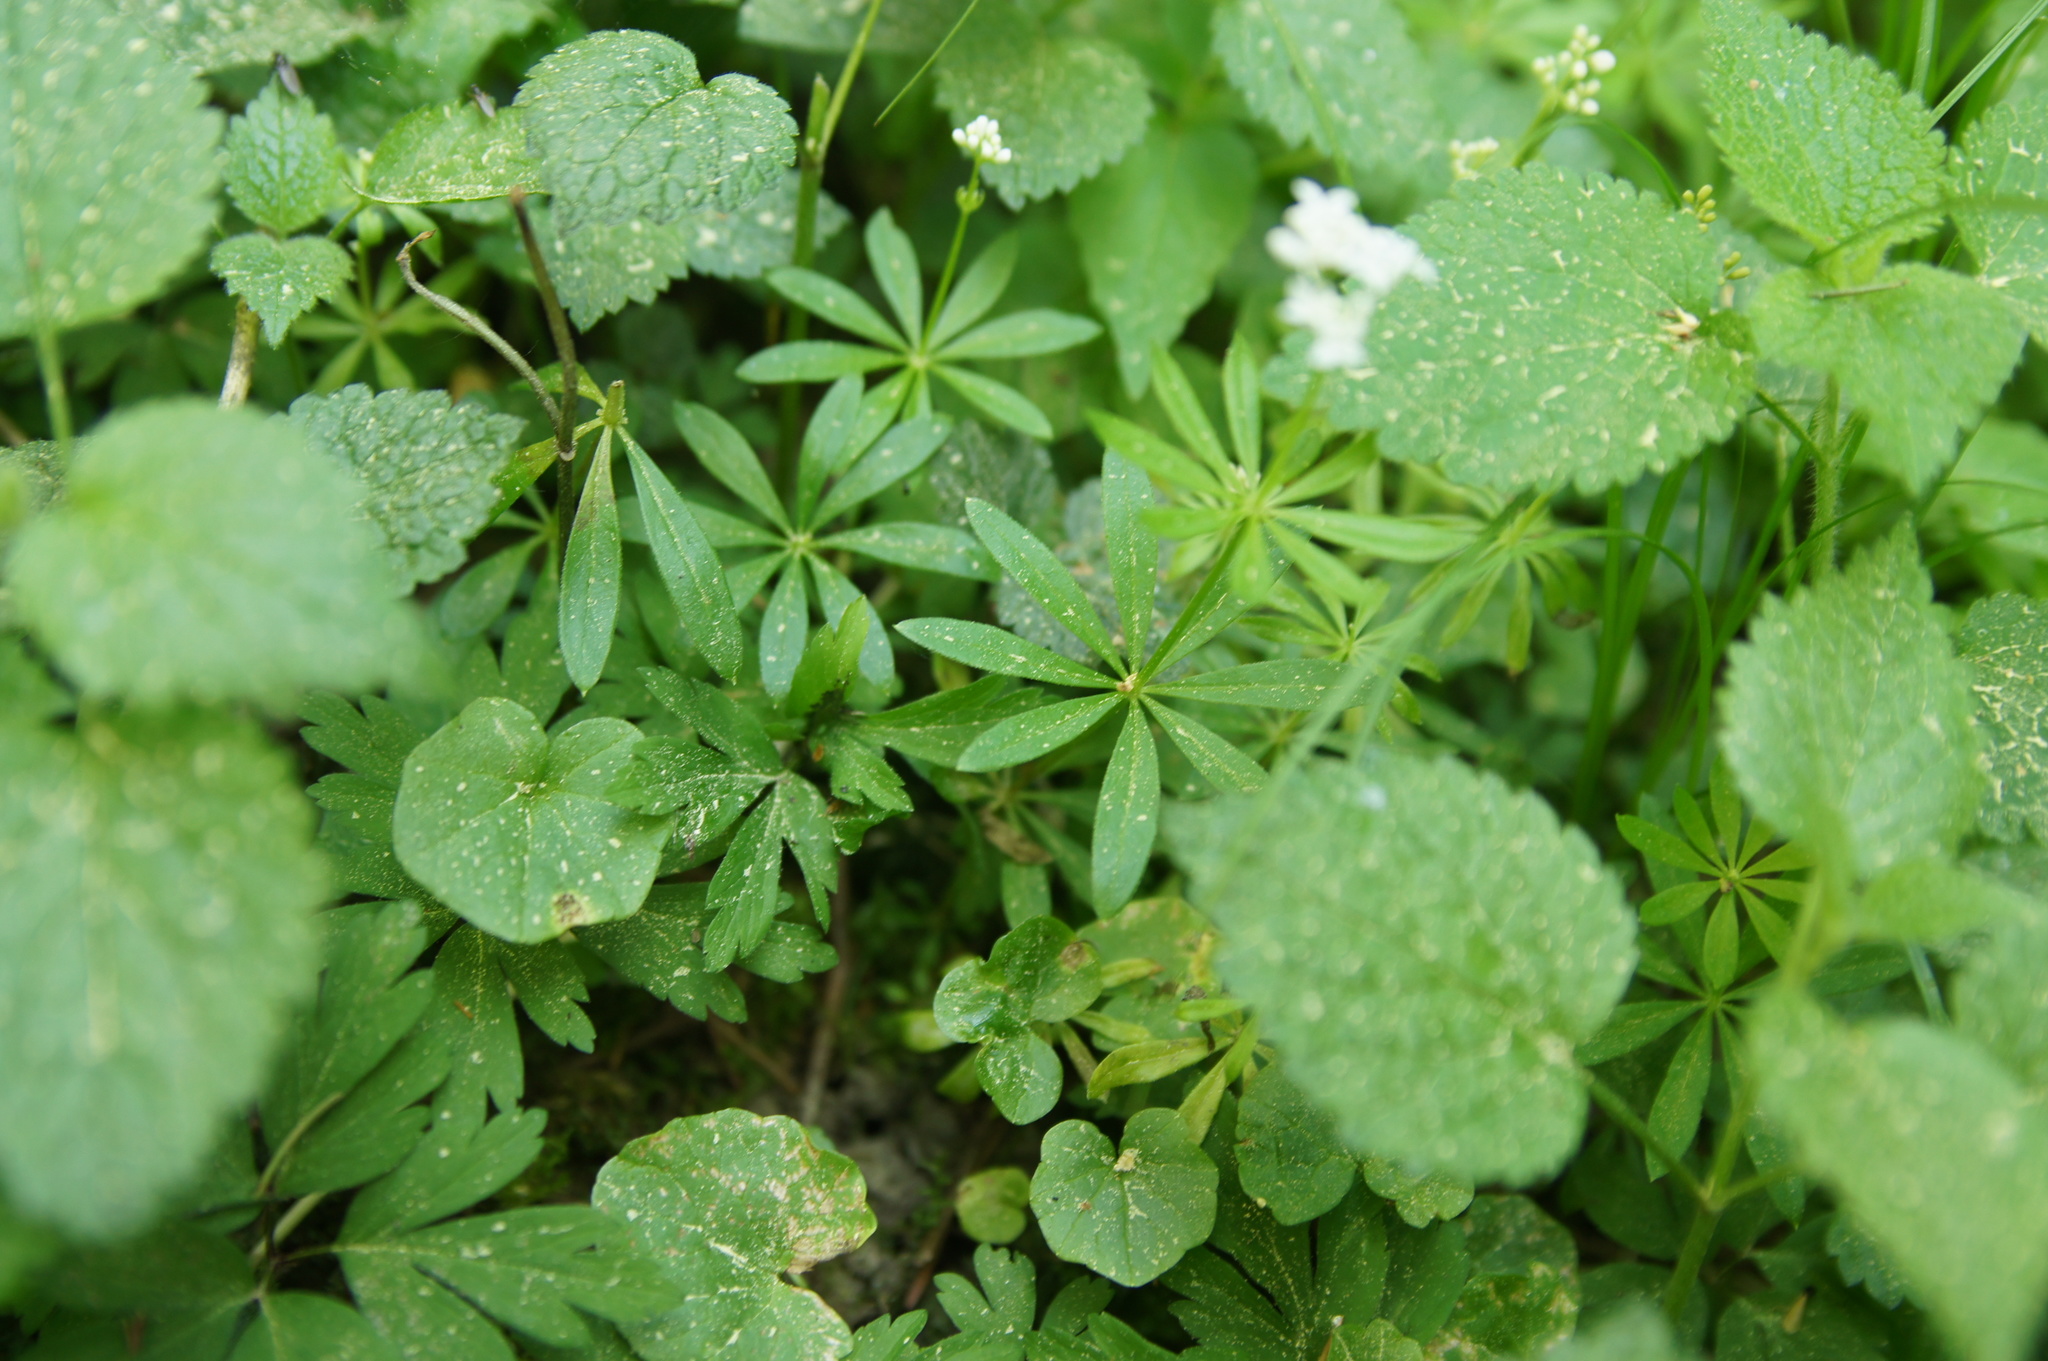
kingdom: Plantae
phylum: Tracheophyta
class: Magnoliopsida
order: Gentianales
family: Rubiaceae
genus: Galium
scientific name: Galium odoratum
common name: Sweet woodruff
